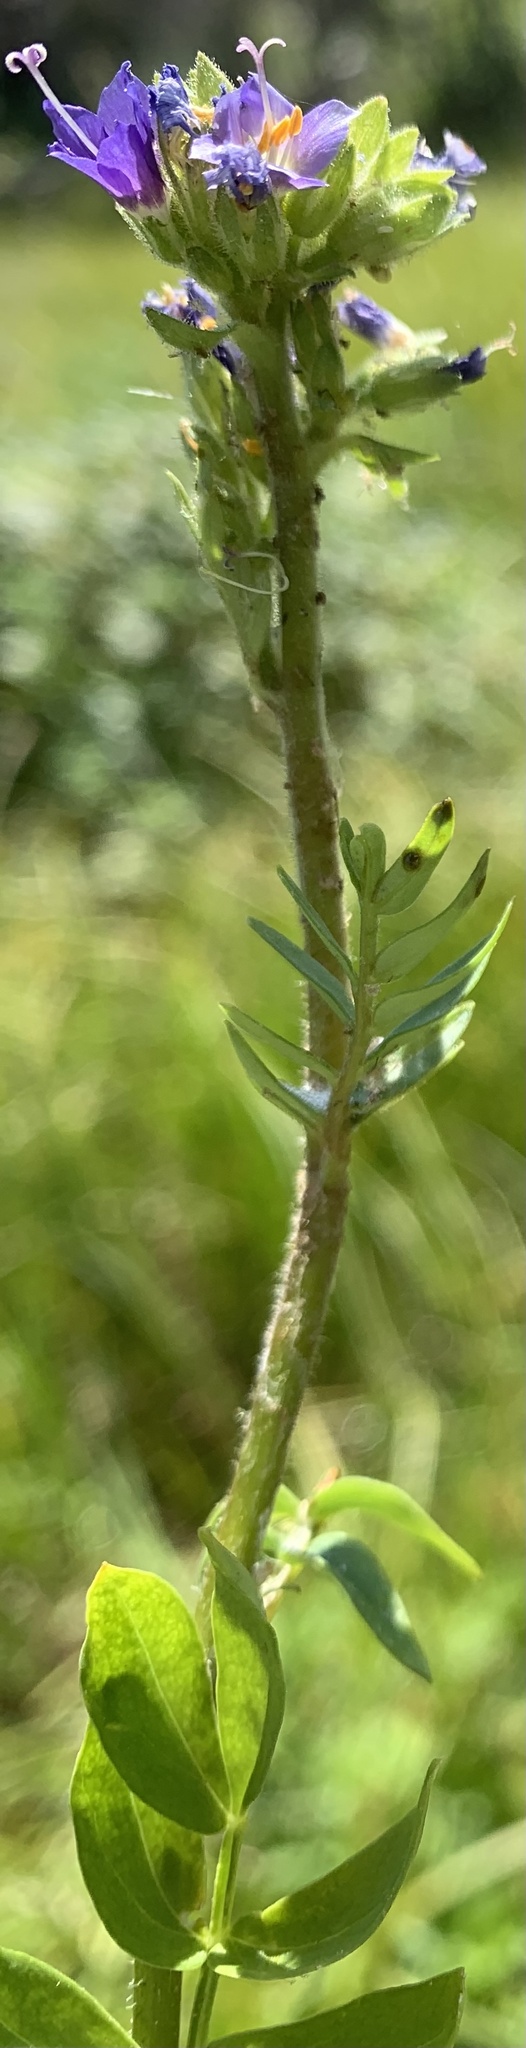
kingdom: Plantae
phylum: Tracheophyta
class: Magnoliopsida
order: Ericales
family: Polemoniaceae
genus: Polemonium
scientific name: Polemonium occidentale
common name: Western jacob's-ladder
